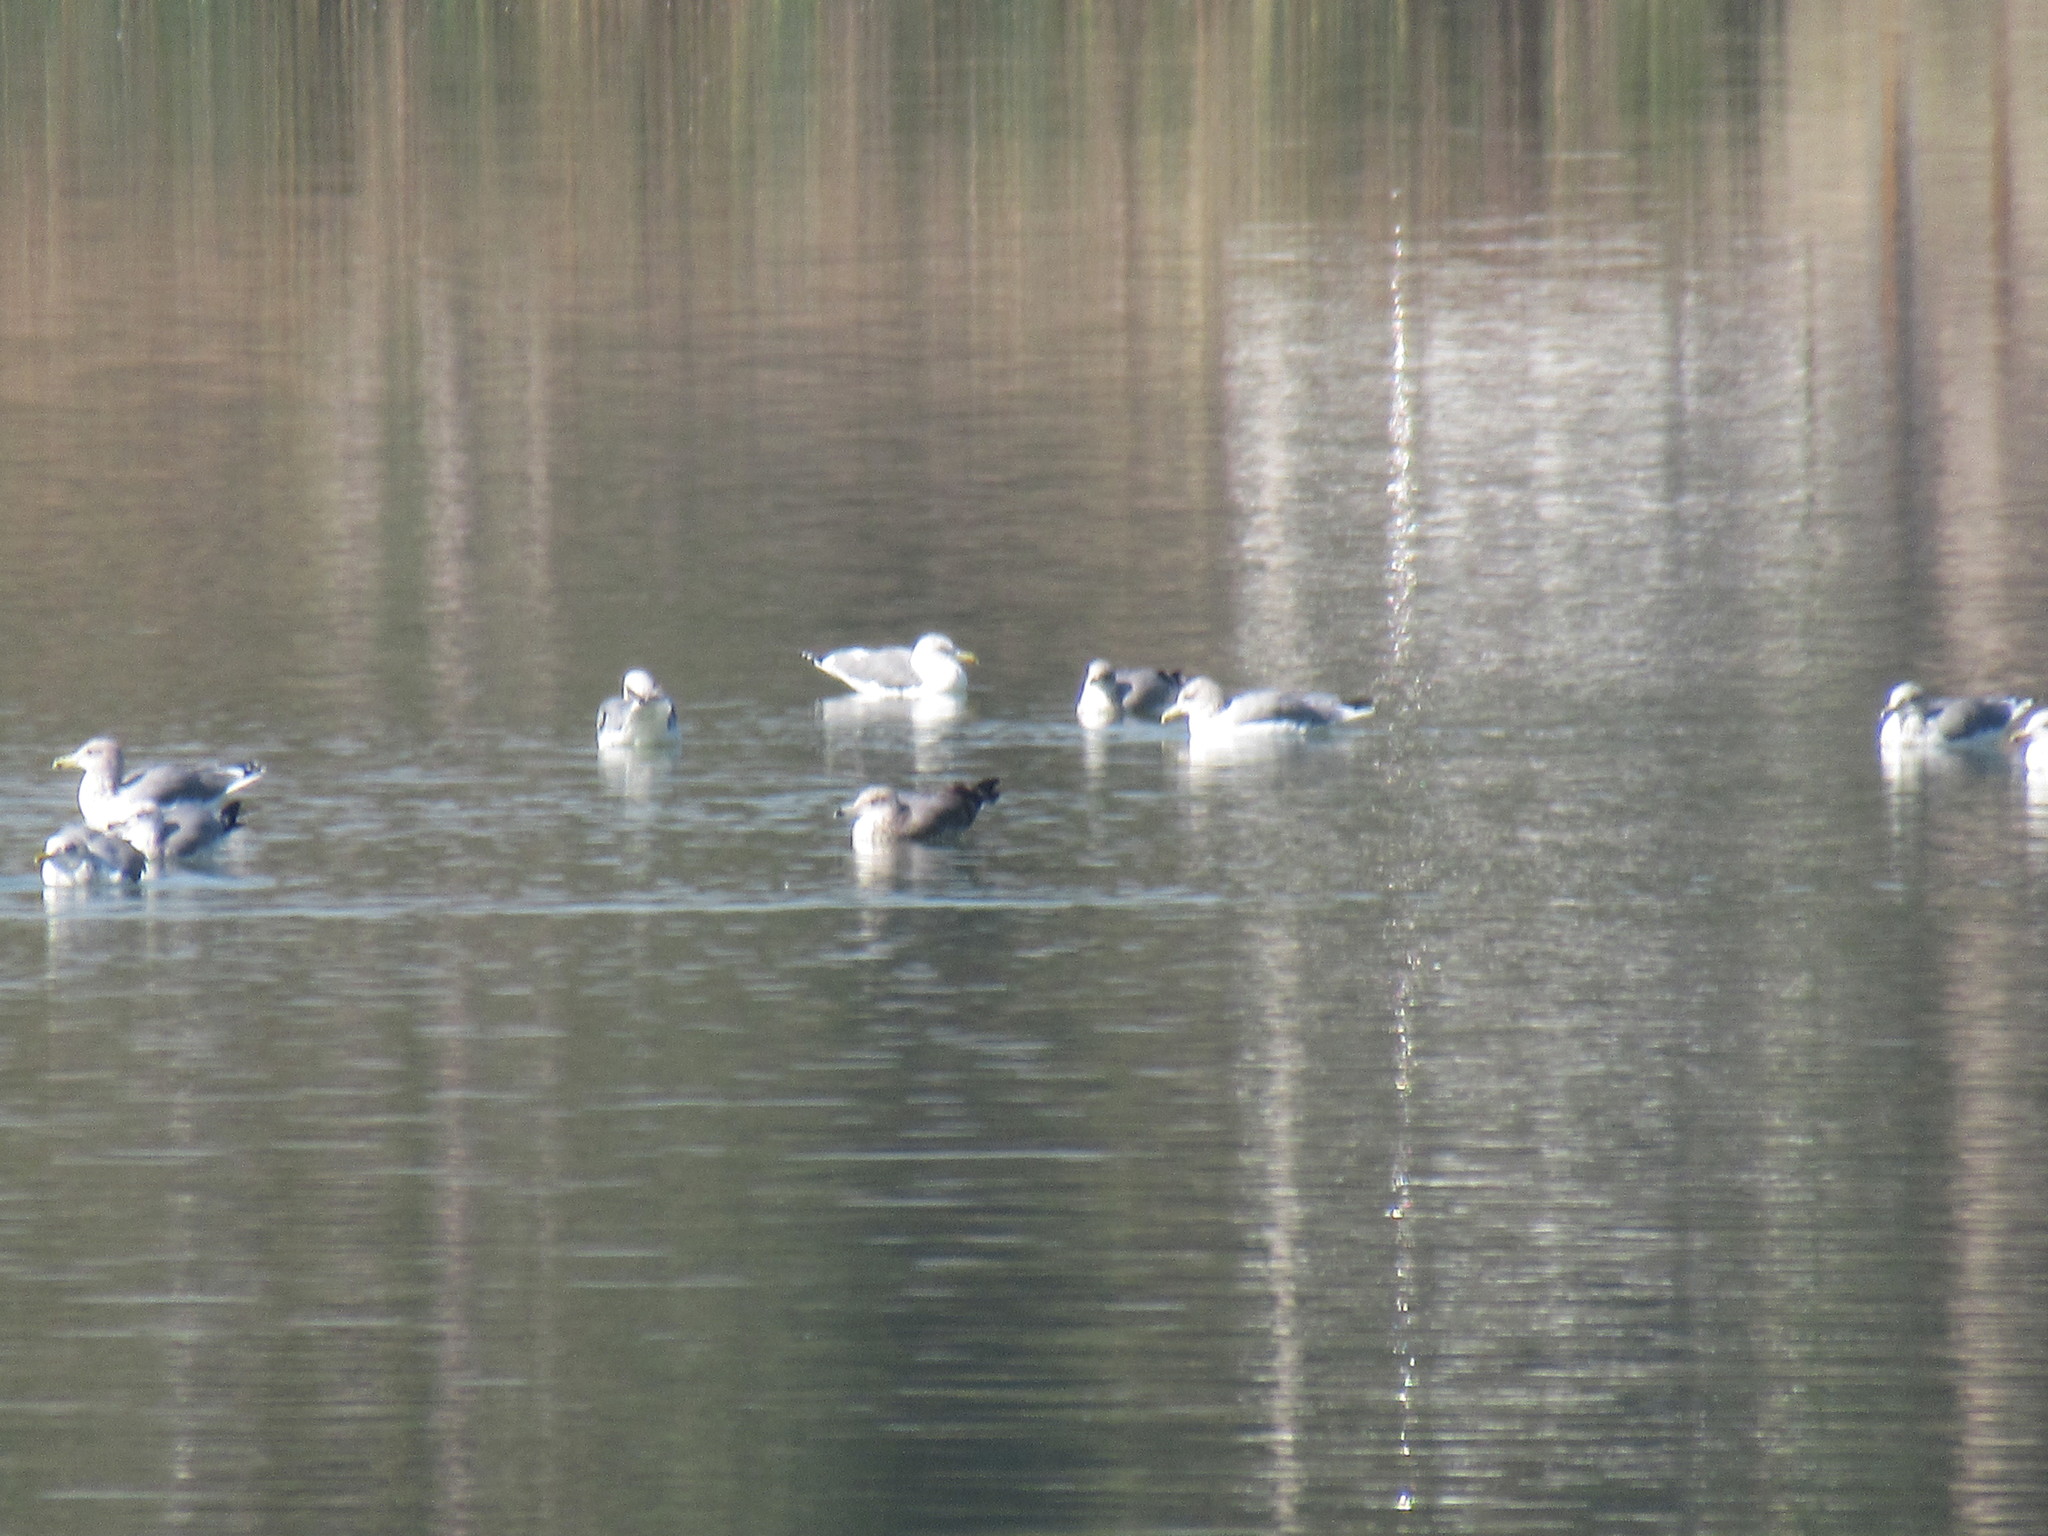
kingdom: Animalia
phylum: Chordata
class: Aves
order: Charadriiformes
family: Laridae
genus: Larus
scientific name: Larus californicus
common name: California gull
